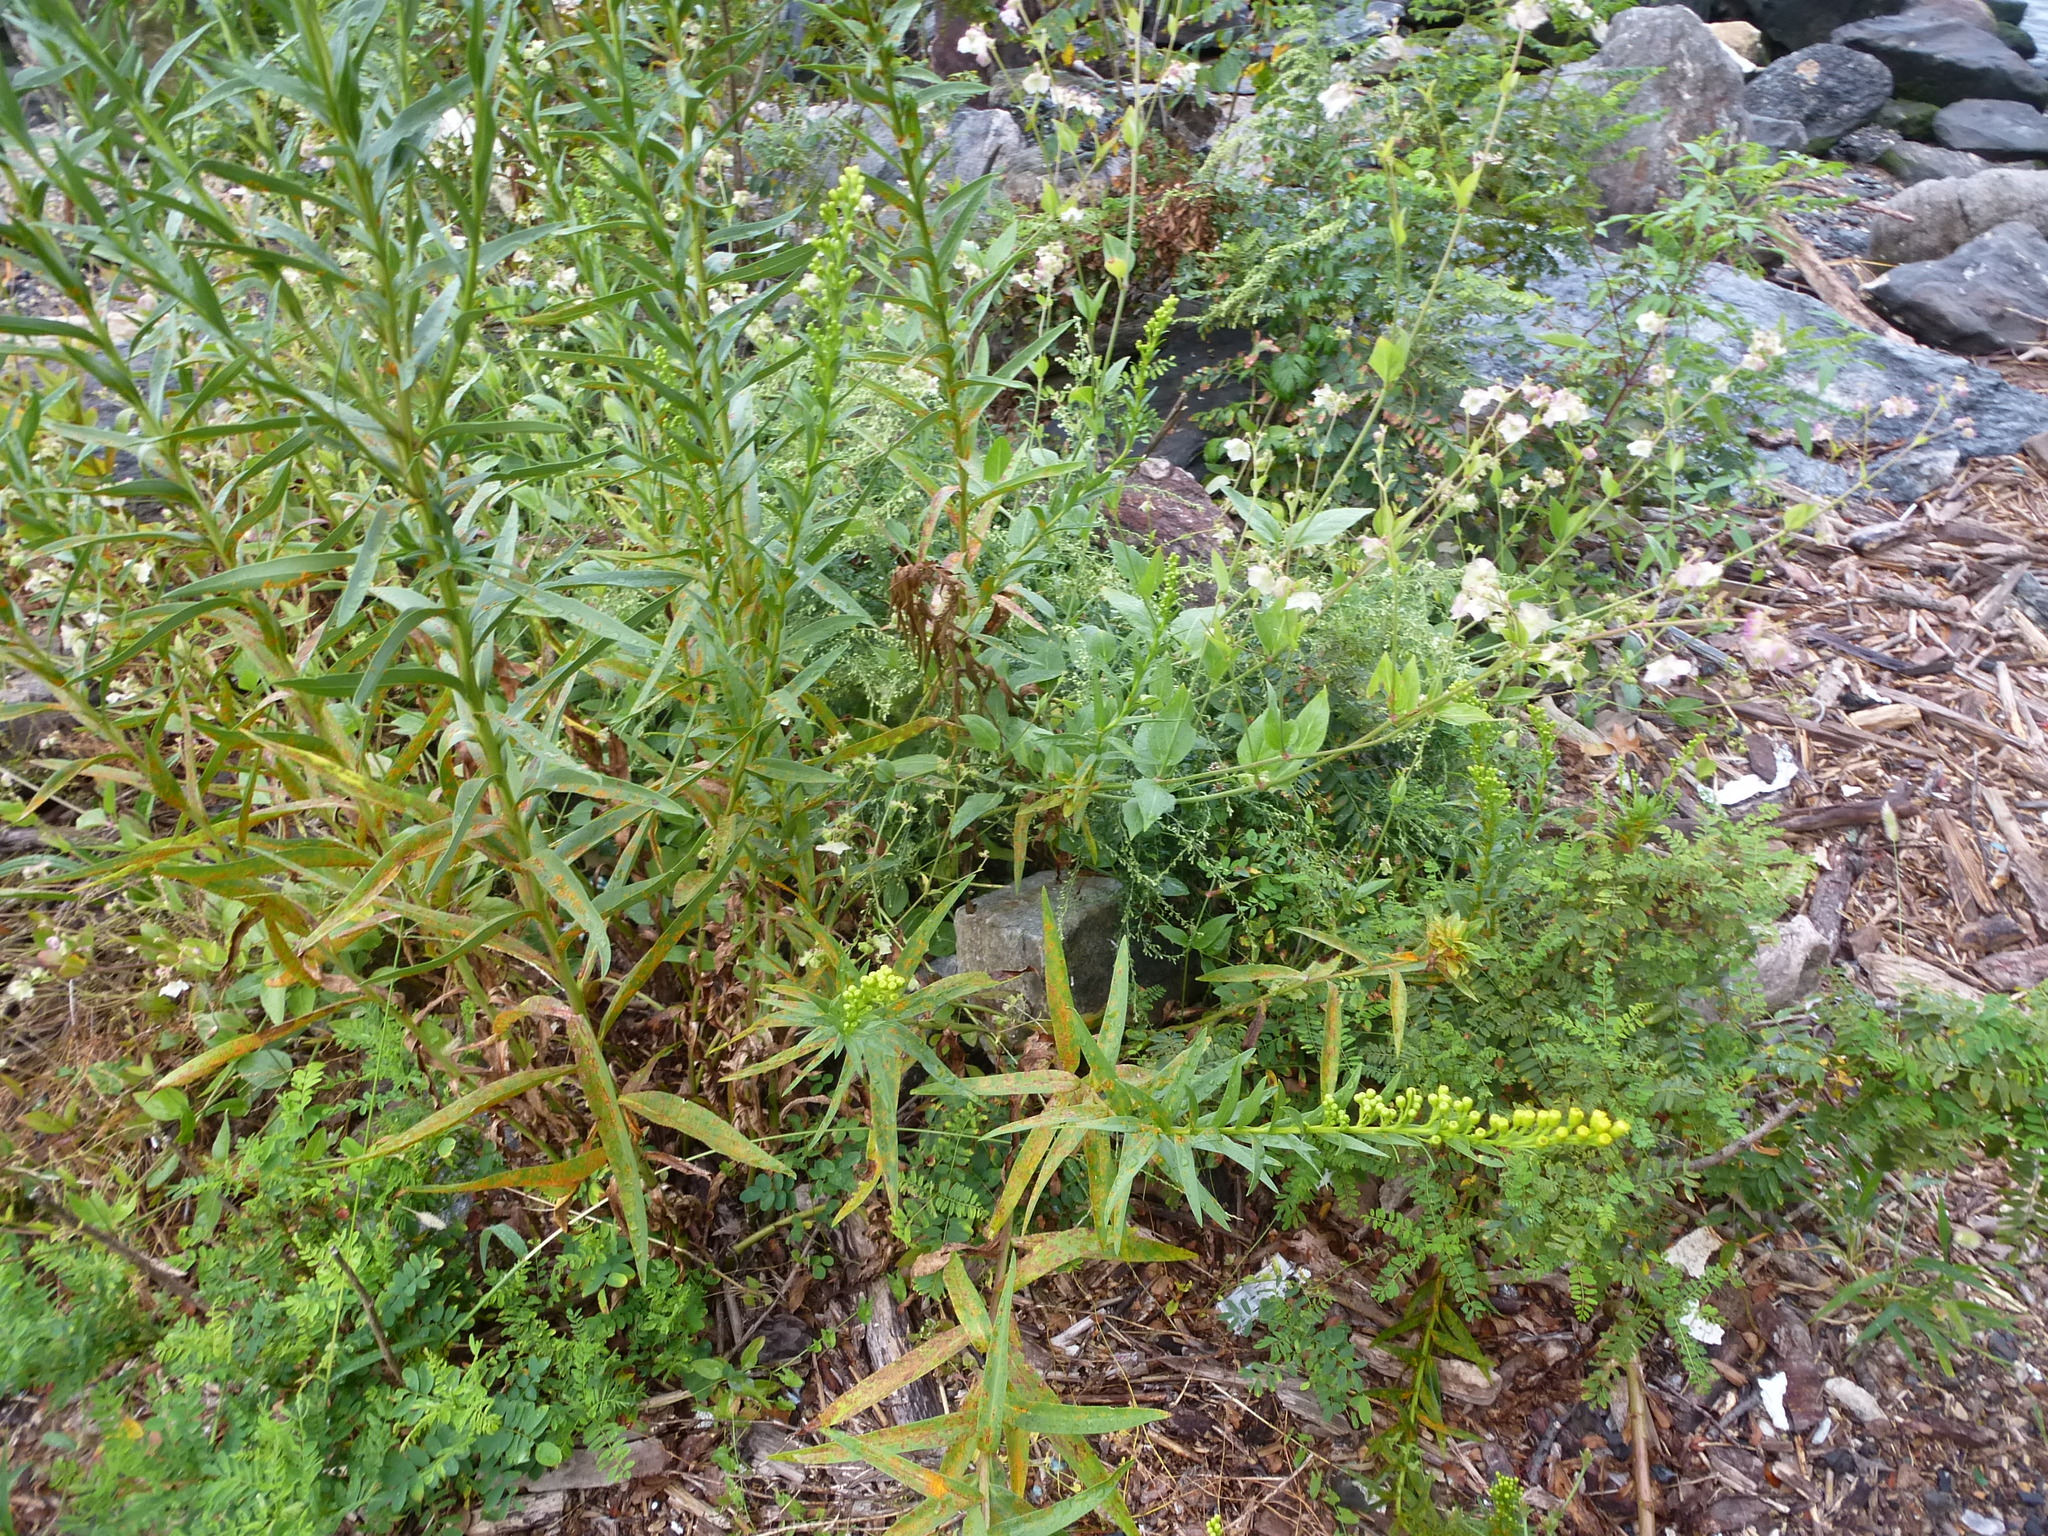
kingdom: Plantae
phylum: Tracheophyta
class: Magnoliopsida
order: Asterales
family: Asteraceae
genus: Solidago
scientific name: Solidago sempervirens
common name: Salt-marsh goldenrod
